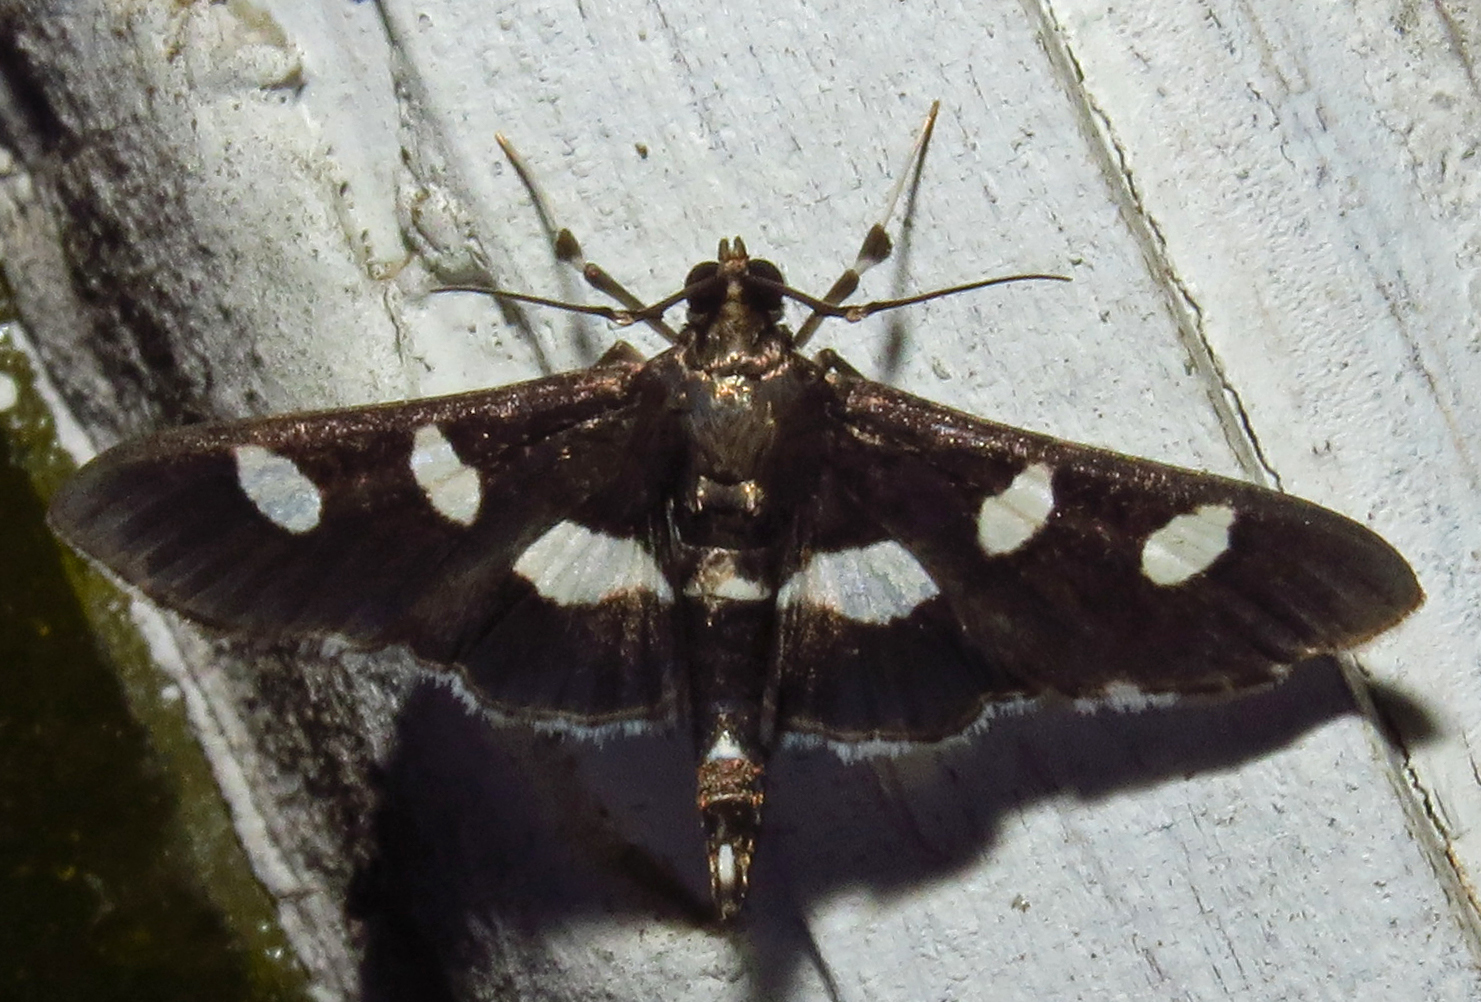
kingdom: Animalia
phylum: Arthropoda
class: Insecta
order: Lepidoptera
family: Crambidae
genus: Desmia
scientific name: Desmia
